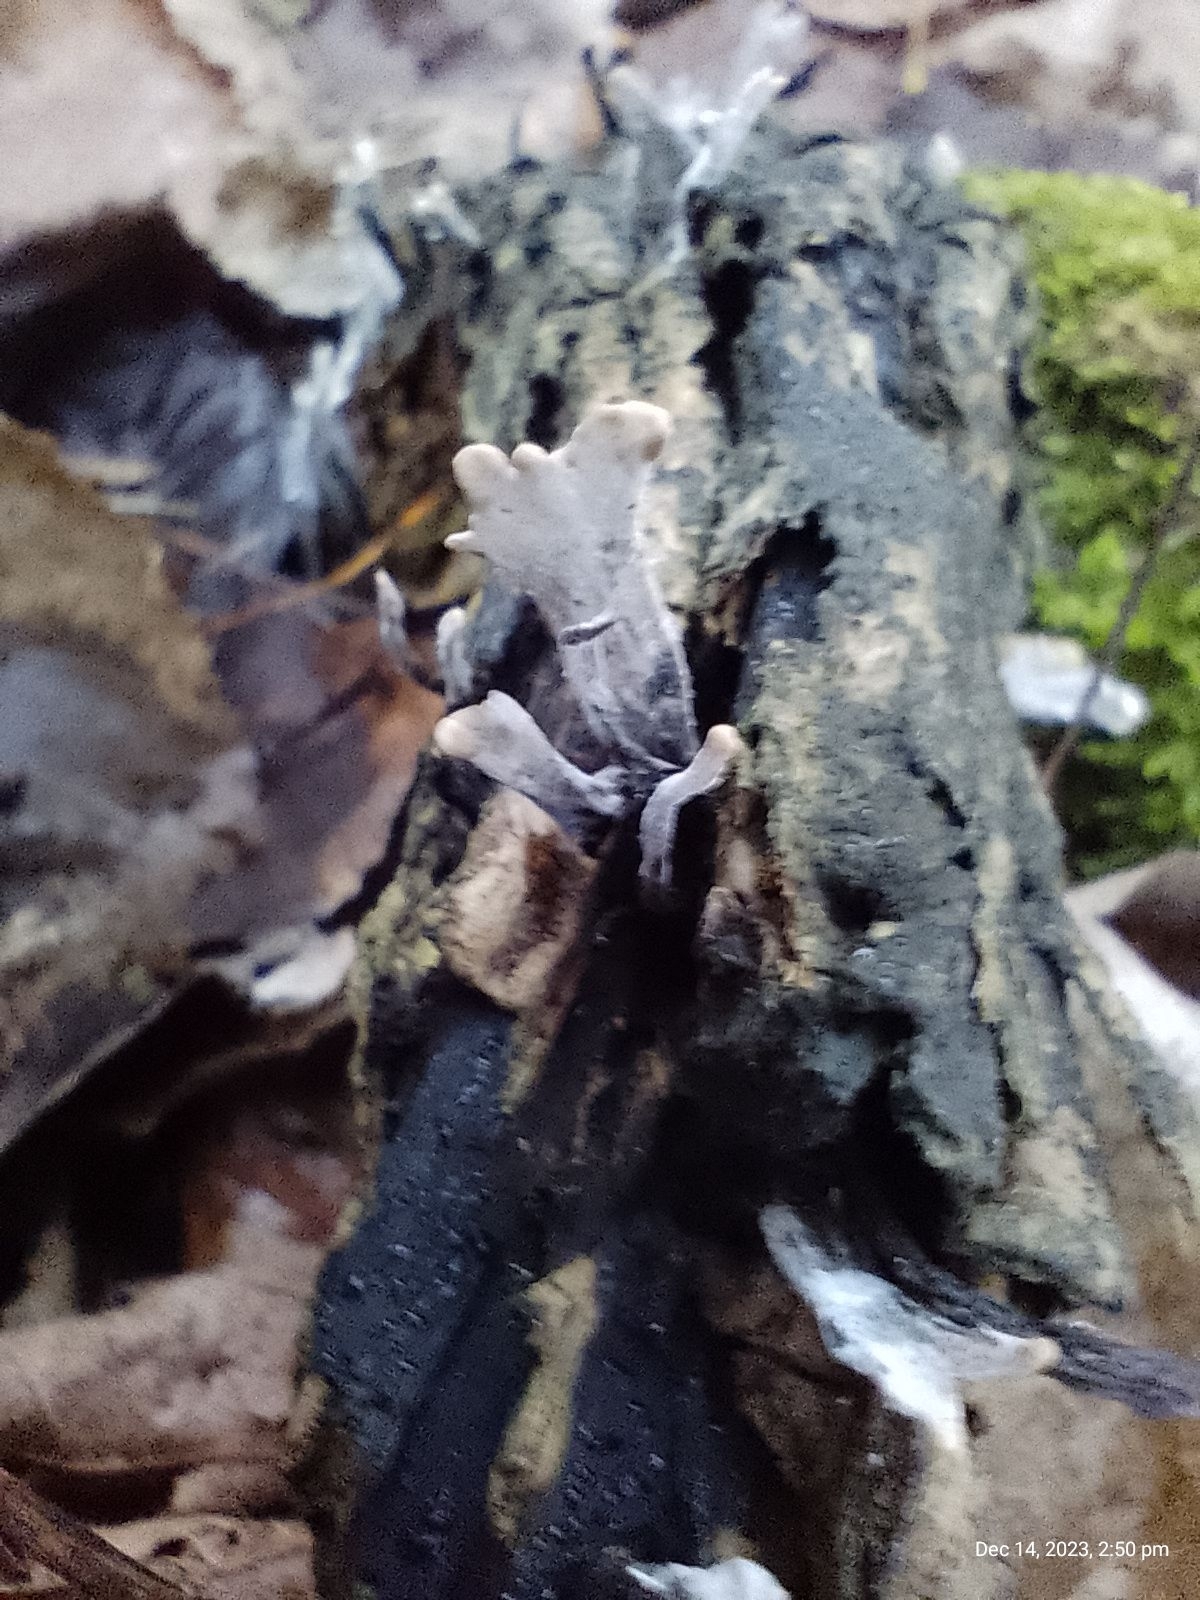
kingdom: Fungi
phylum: Ascomycota
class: Sordariomycetes
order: Xylariales
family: Xylariaceae
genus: Xylaria
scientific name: Xylaria hypoxylon
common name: Candle-snuff fungus
